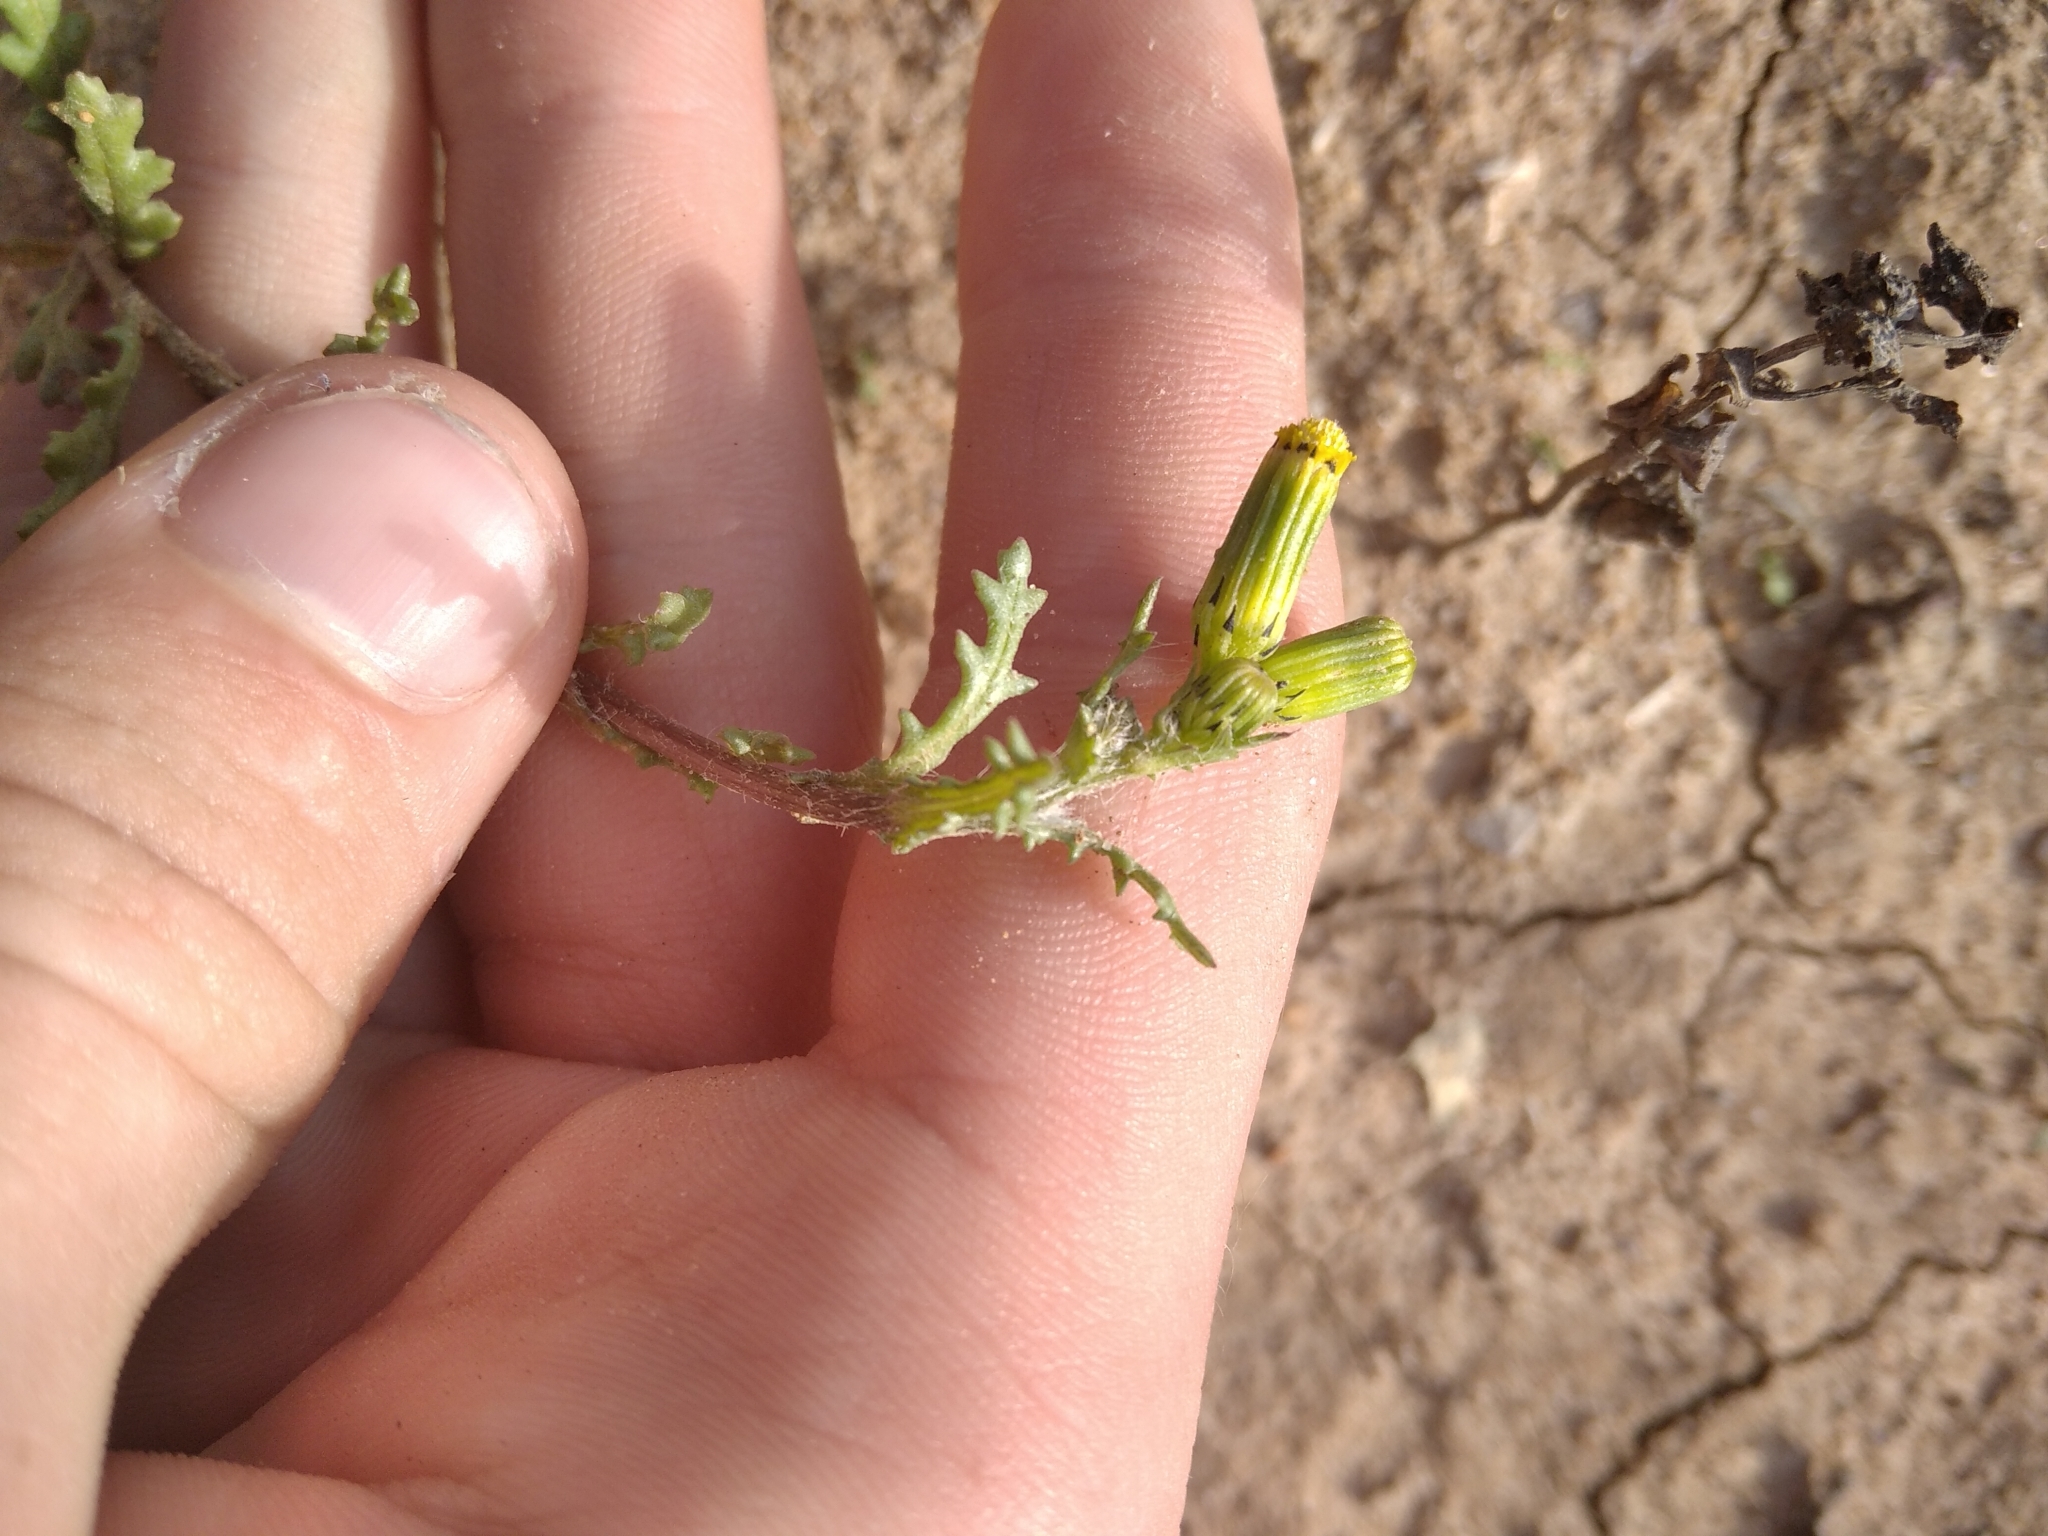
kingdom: Plantae
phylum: Tracheophyta
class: Magnoliopsida
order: Asterales
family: Asteraceae
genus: Senecio
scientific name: Senecio vulgaris
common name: Old-man-in-the-spring
